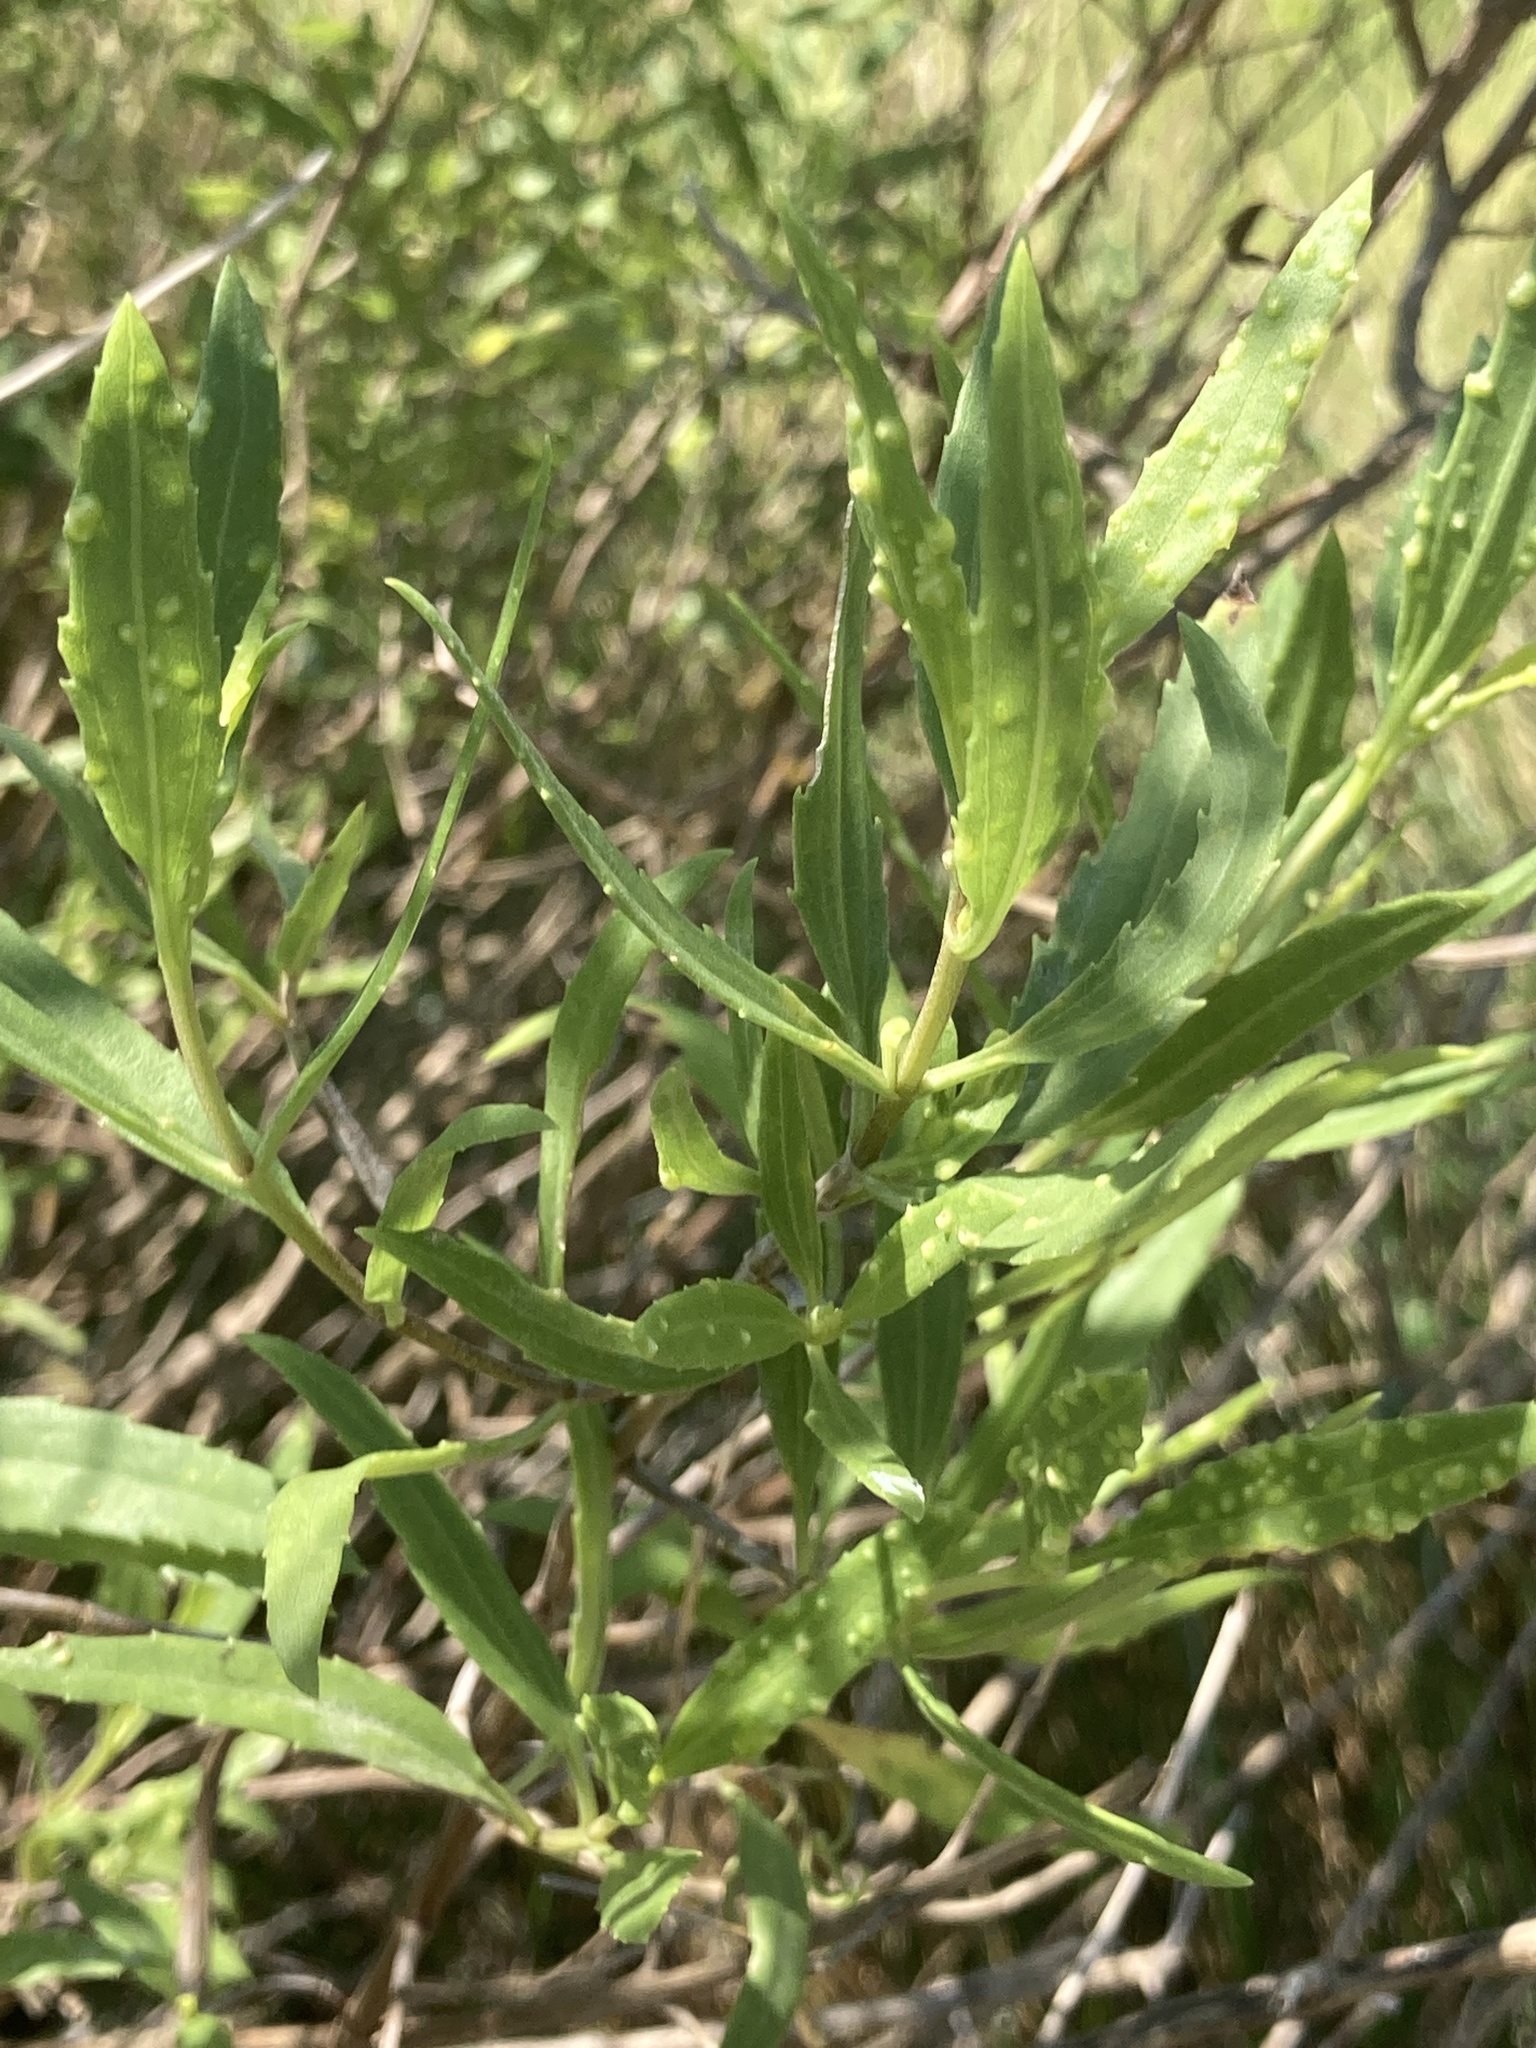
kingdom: Plantae
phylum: Tracheophyta
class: Magnoliopsida
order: Asterales
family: Asteraceae
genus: Iva
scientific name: Iva frutescens
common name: Big-leaved marsh-elder
